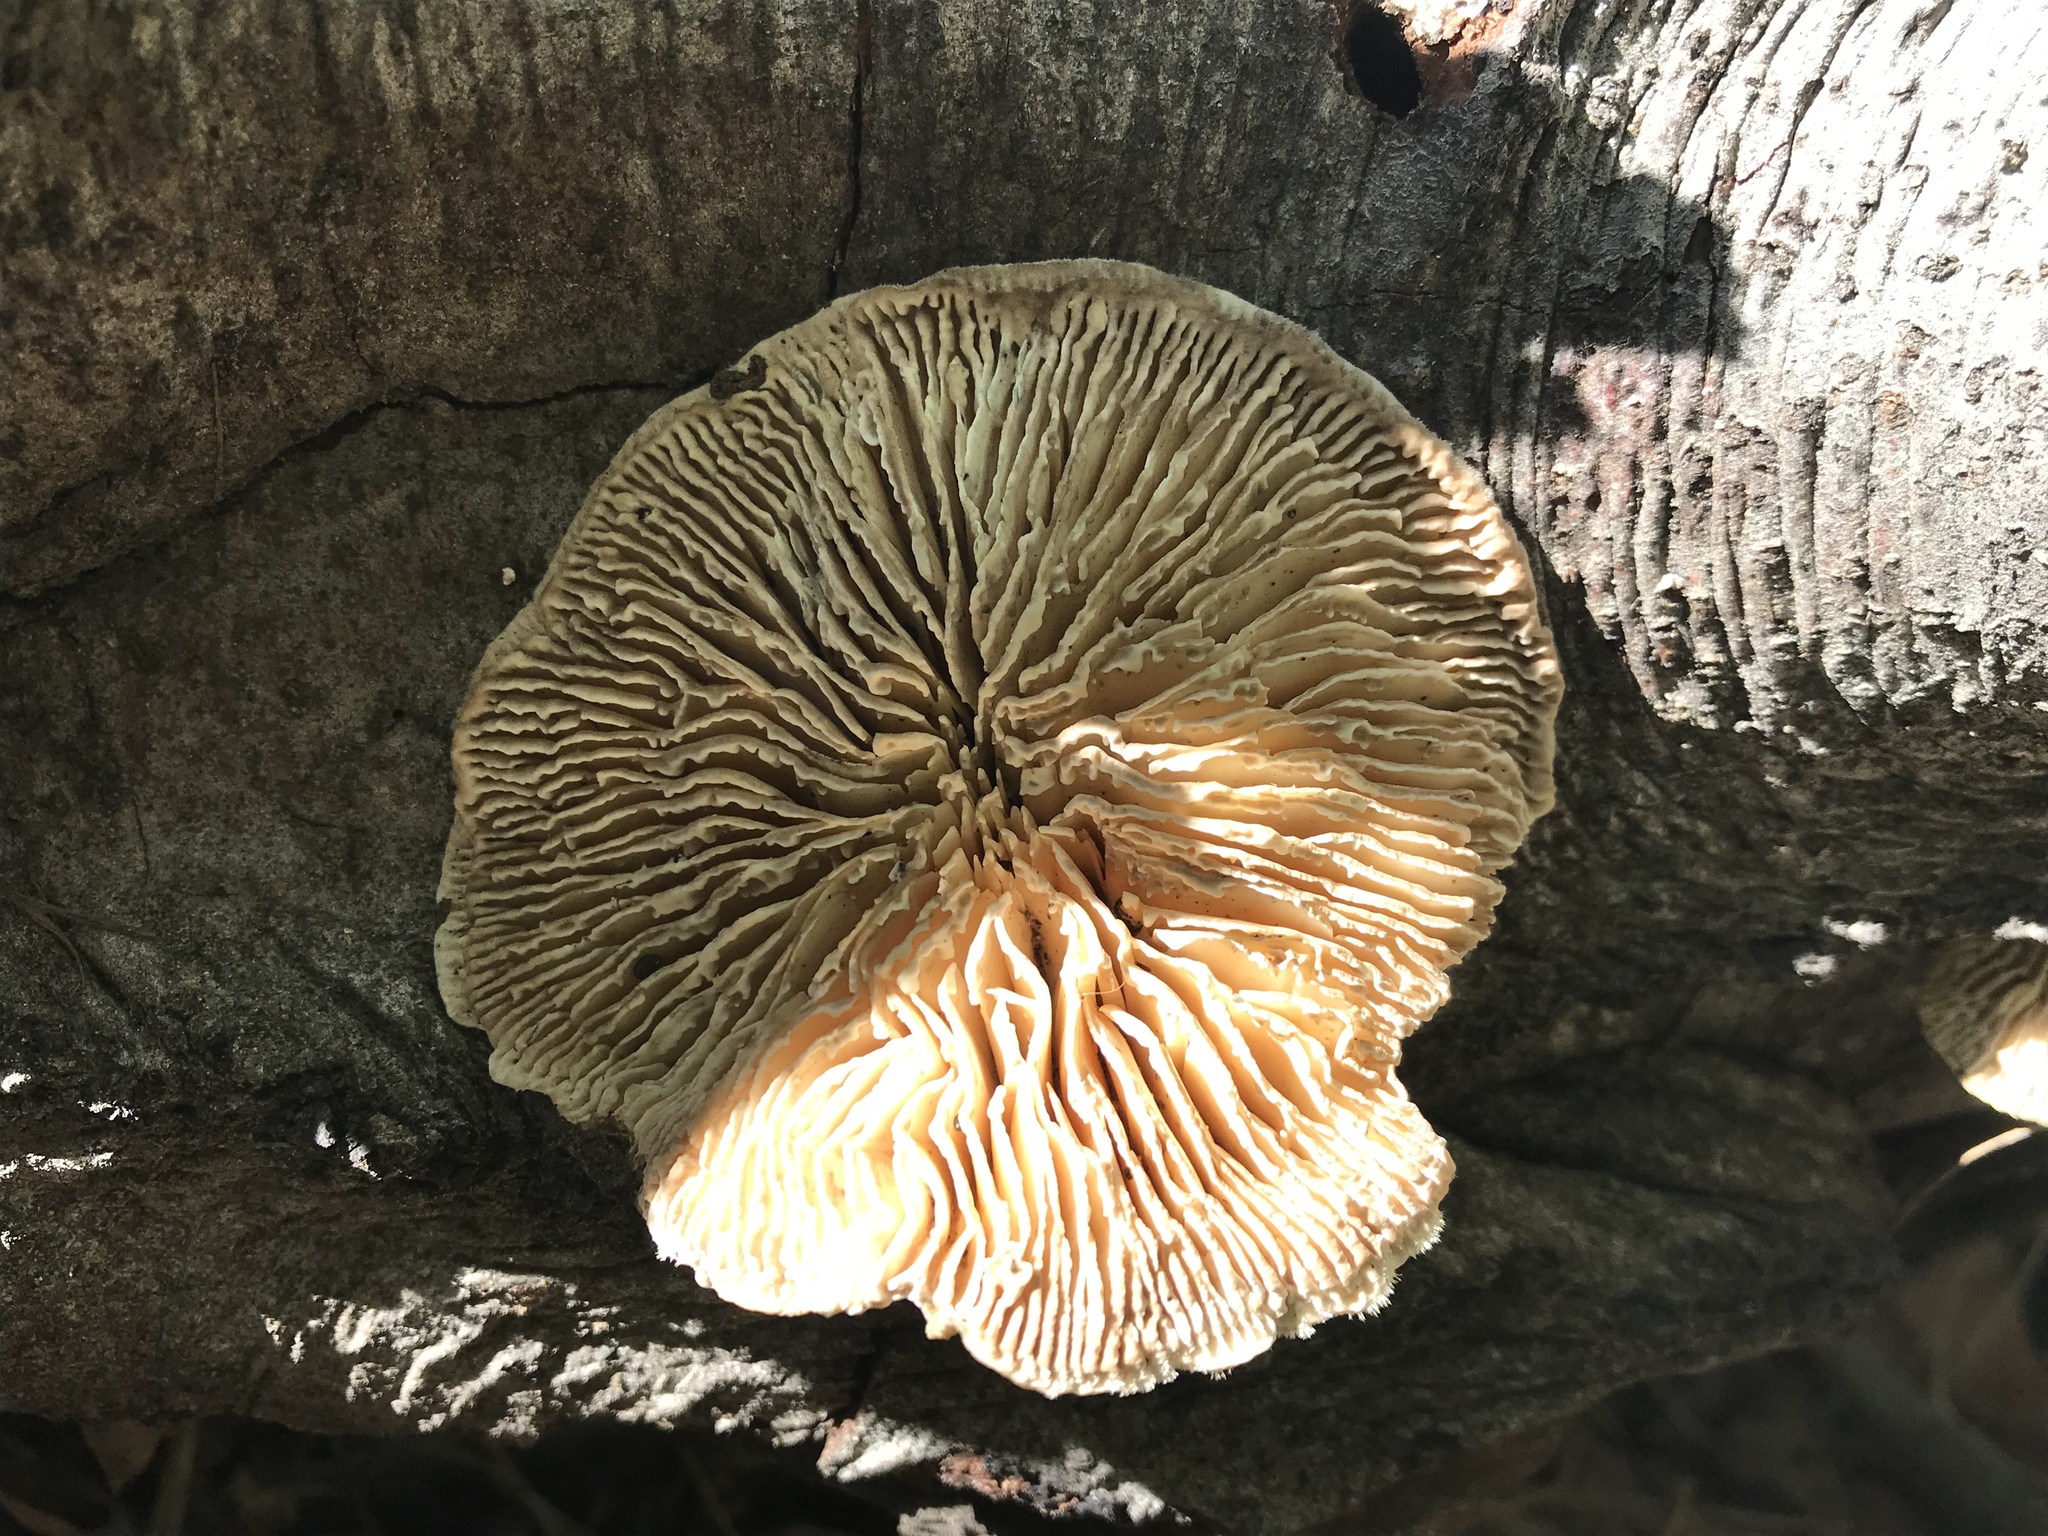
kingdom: Fungi
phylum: Basidiomycota
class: Agaricomycetes
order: Polyporales
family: Polyporaceae
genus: Lenzites
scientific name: Lenzites betulinus
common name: Birch mazegill
